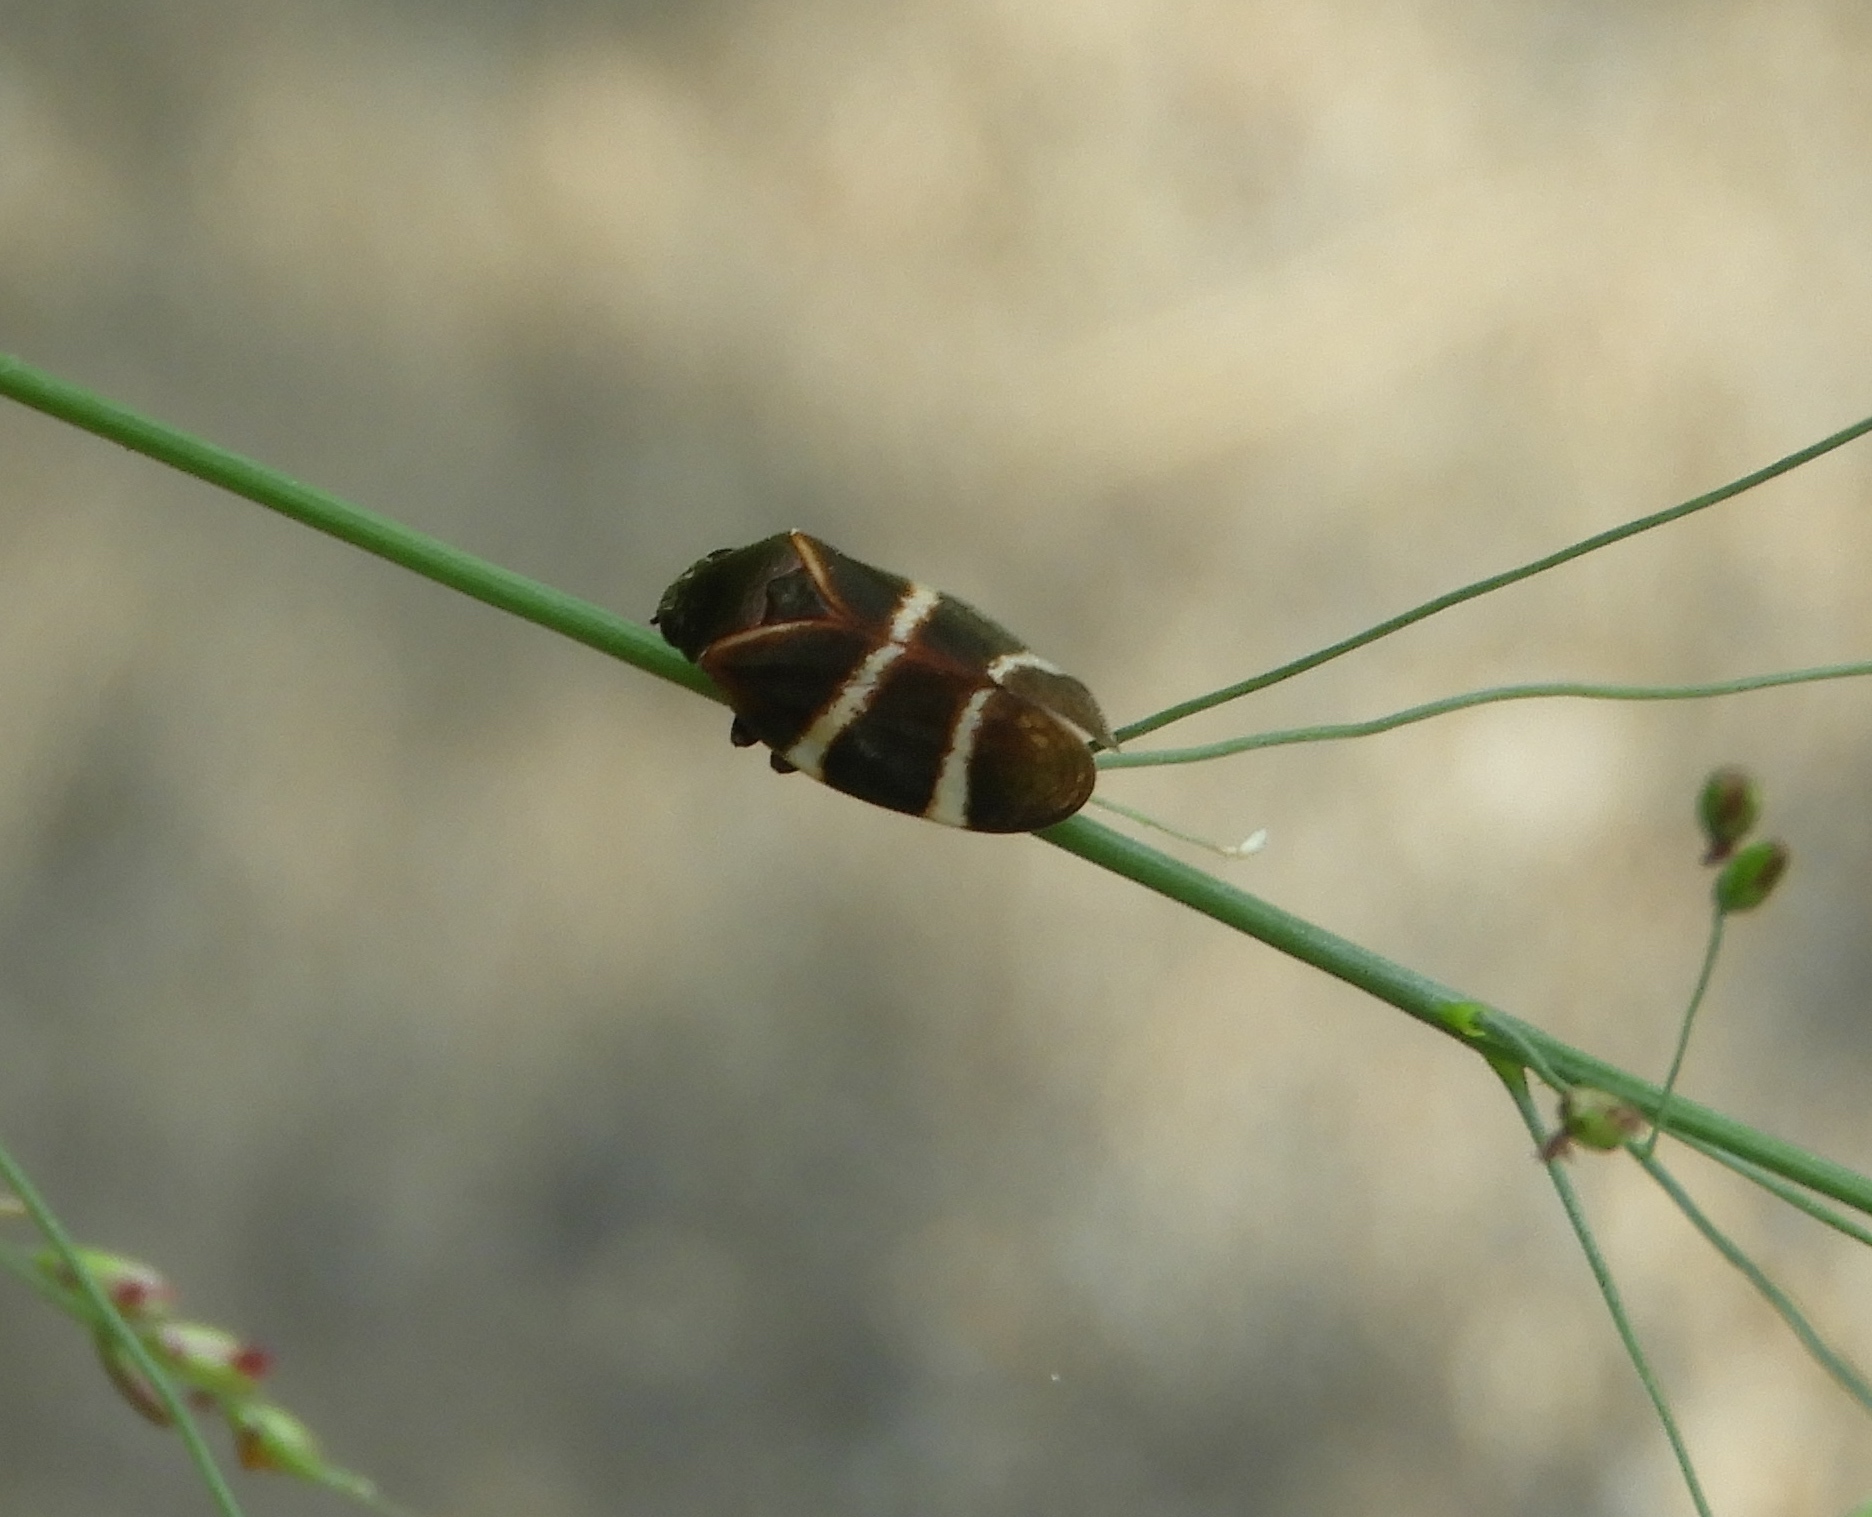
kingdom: Animalia
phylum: Arthropoda
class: Insecta
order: Hemiptera
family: Cercopidae
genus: Aeneolamia
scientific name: Aeneolamia
